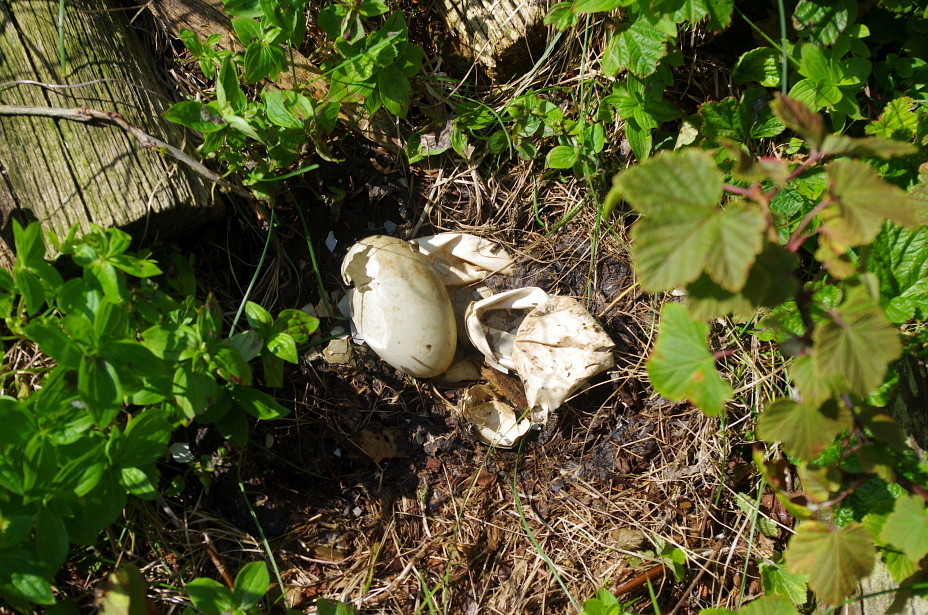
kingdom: Animalia
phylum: Chordata
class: Aves
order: Anseriformes
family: Anatidae
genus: Somateria
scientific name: Somateria mollissima
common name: Common eider
